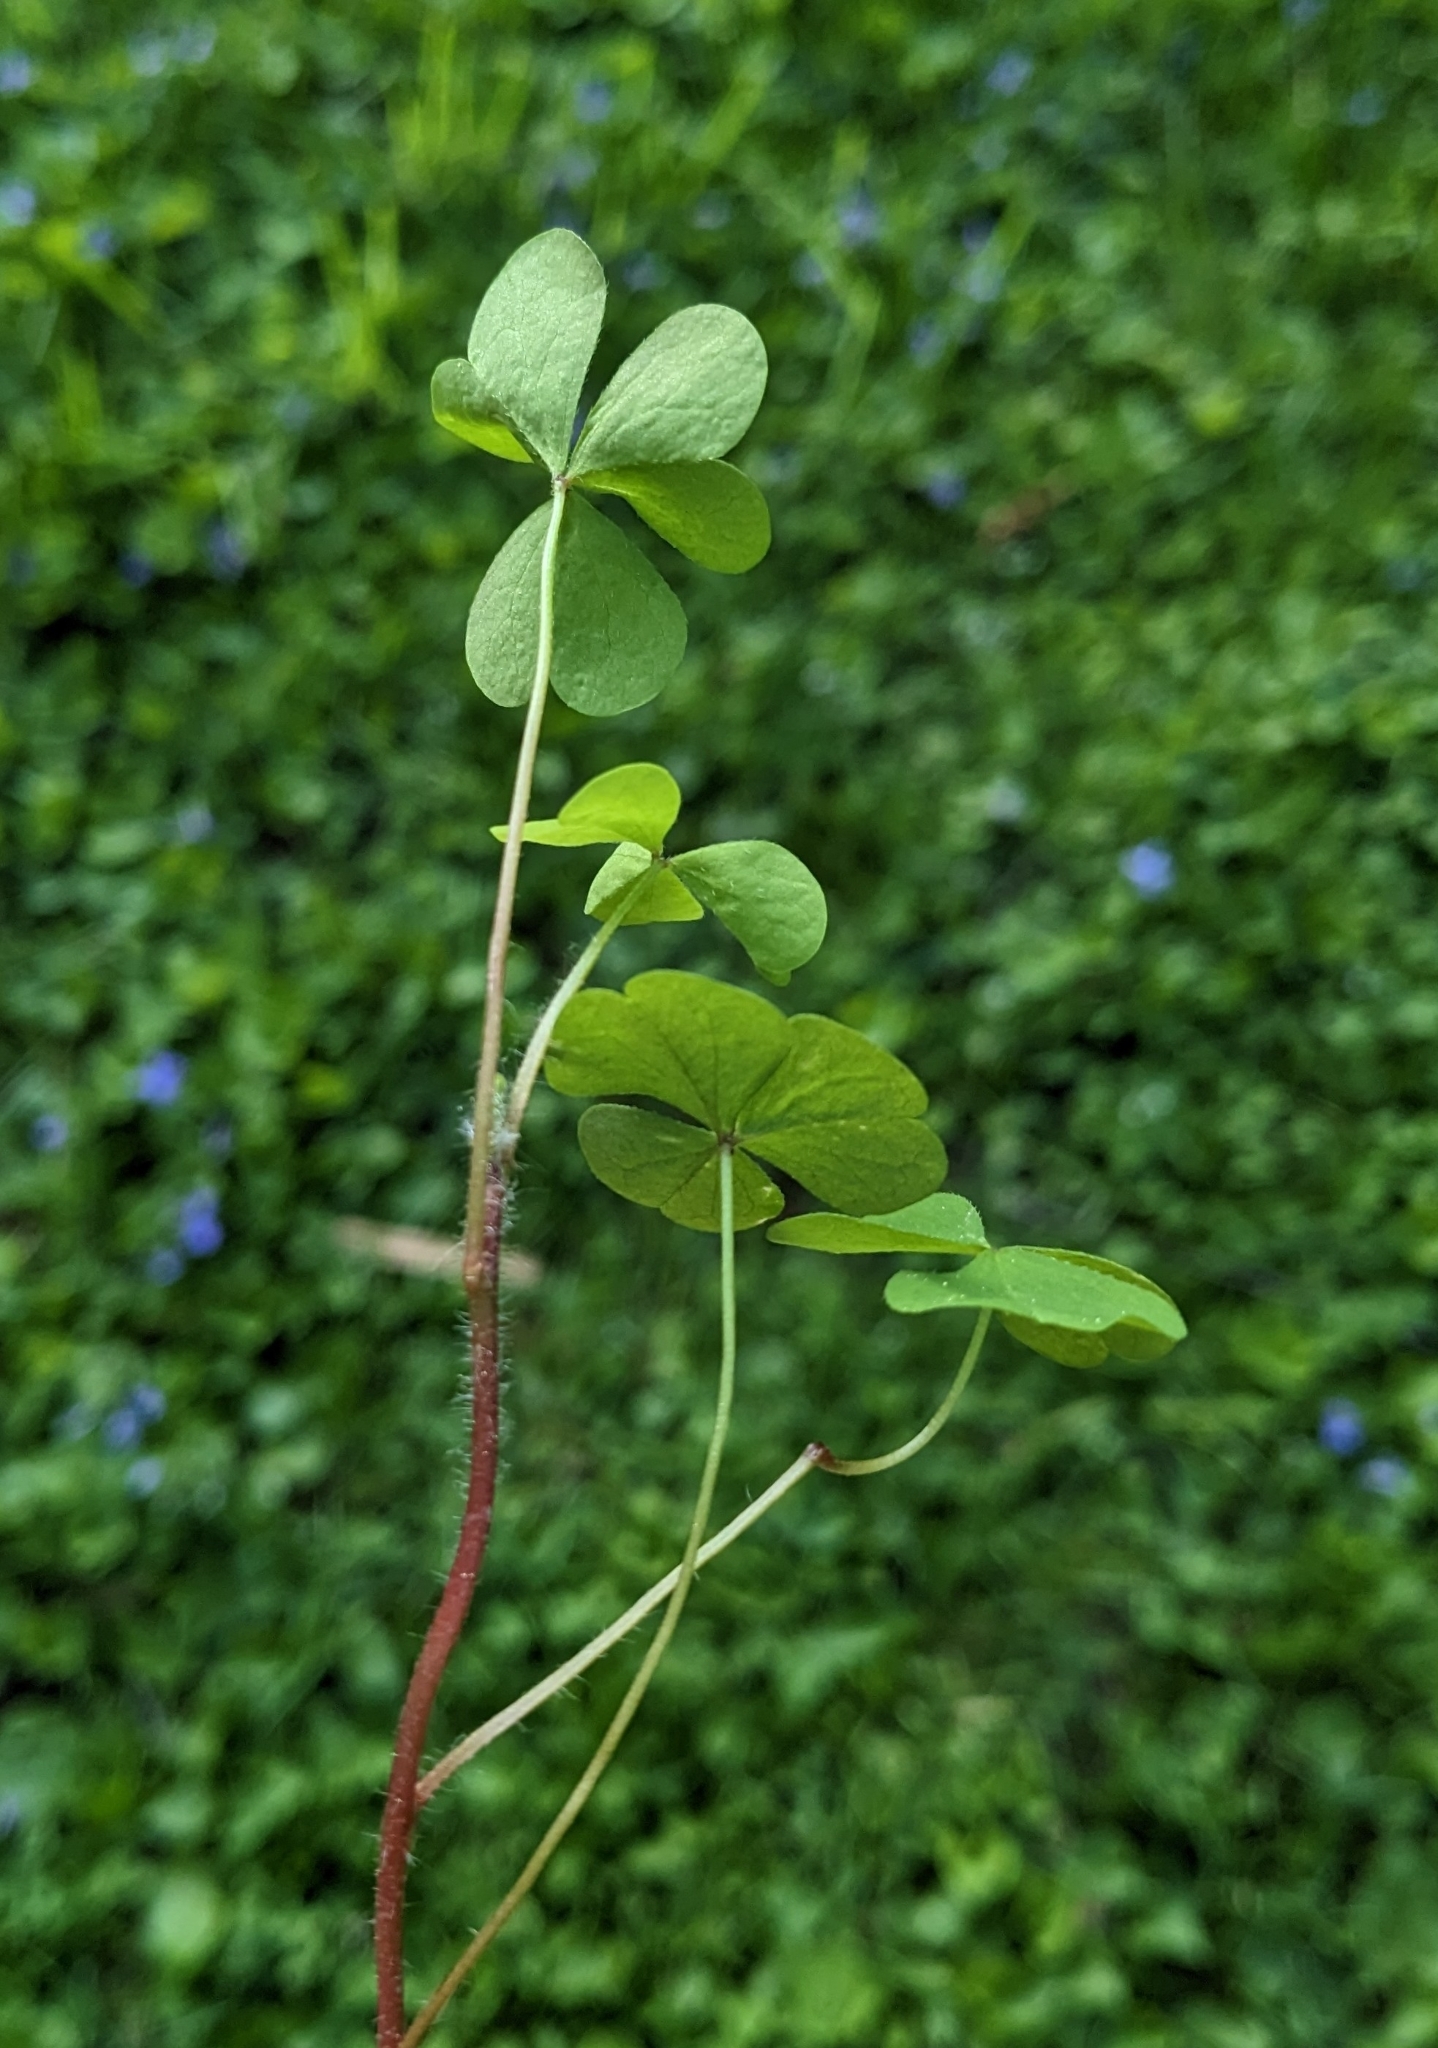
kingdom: Plantae
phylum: Tracheophyta
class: Magnoliopsida
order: Oxalidales
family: Oxalidaceae
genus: Oxalis
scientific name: Oxalis stricta
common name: Upright yellow-sorrel
